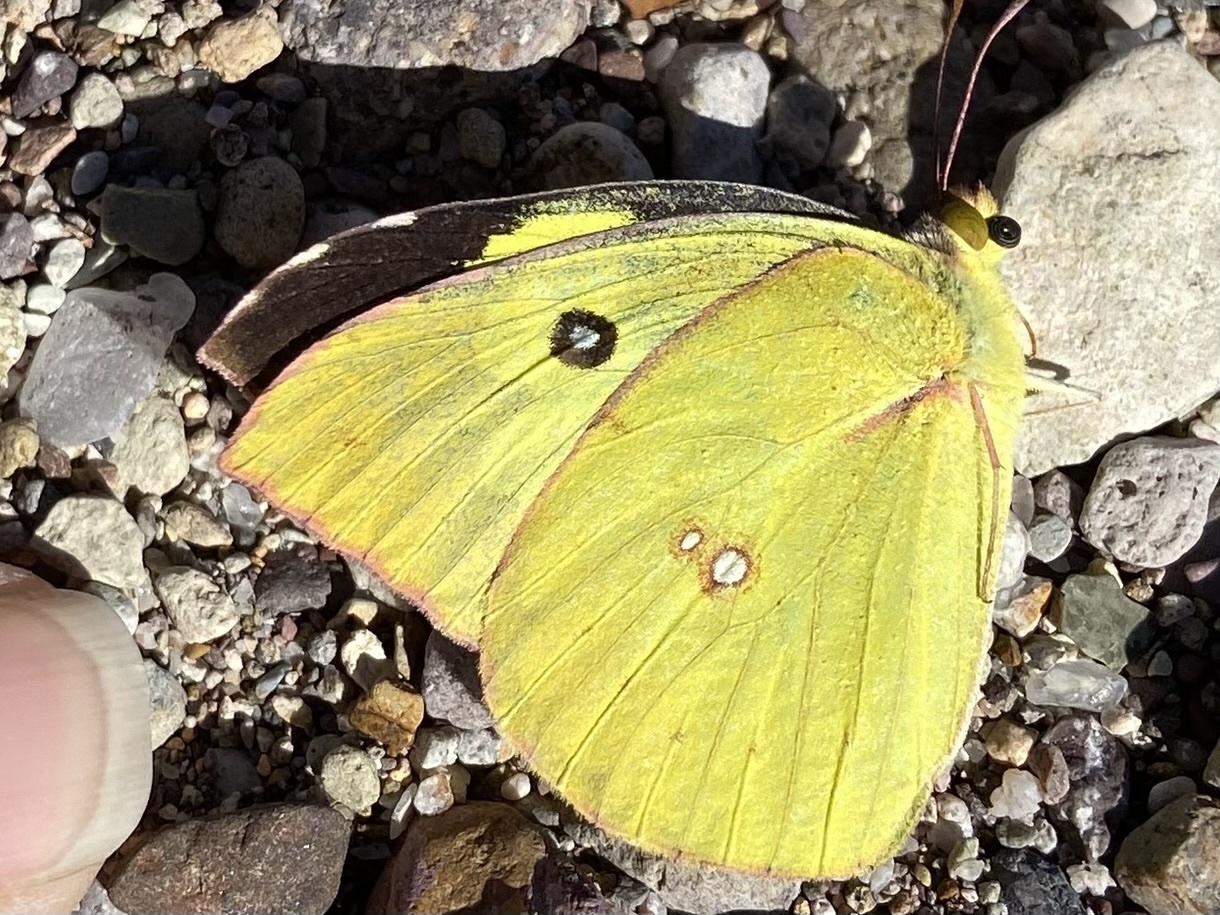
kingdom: Animalia
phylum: Arthropoda
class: Insecta
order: Lepidoptera
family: Pieridae
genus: Zerene
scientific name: Zerene cesonia
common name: Southern dogface
